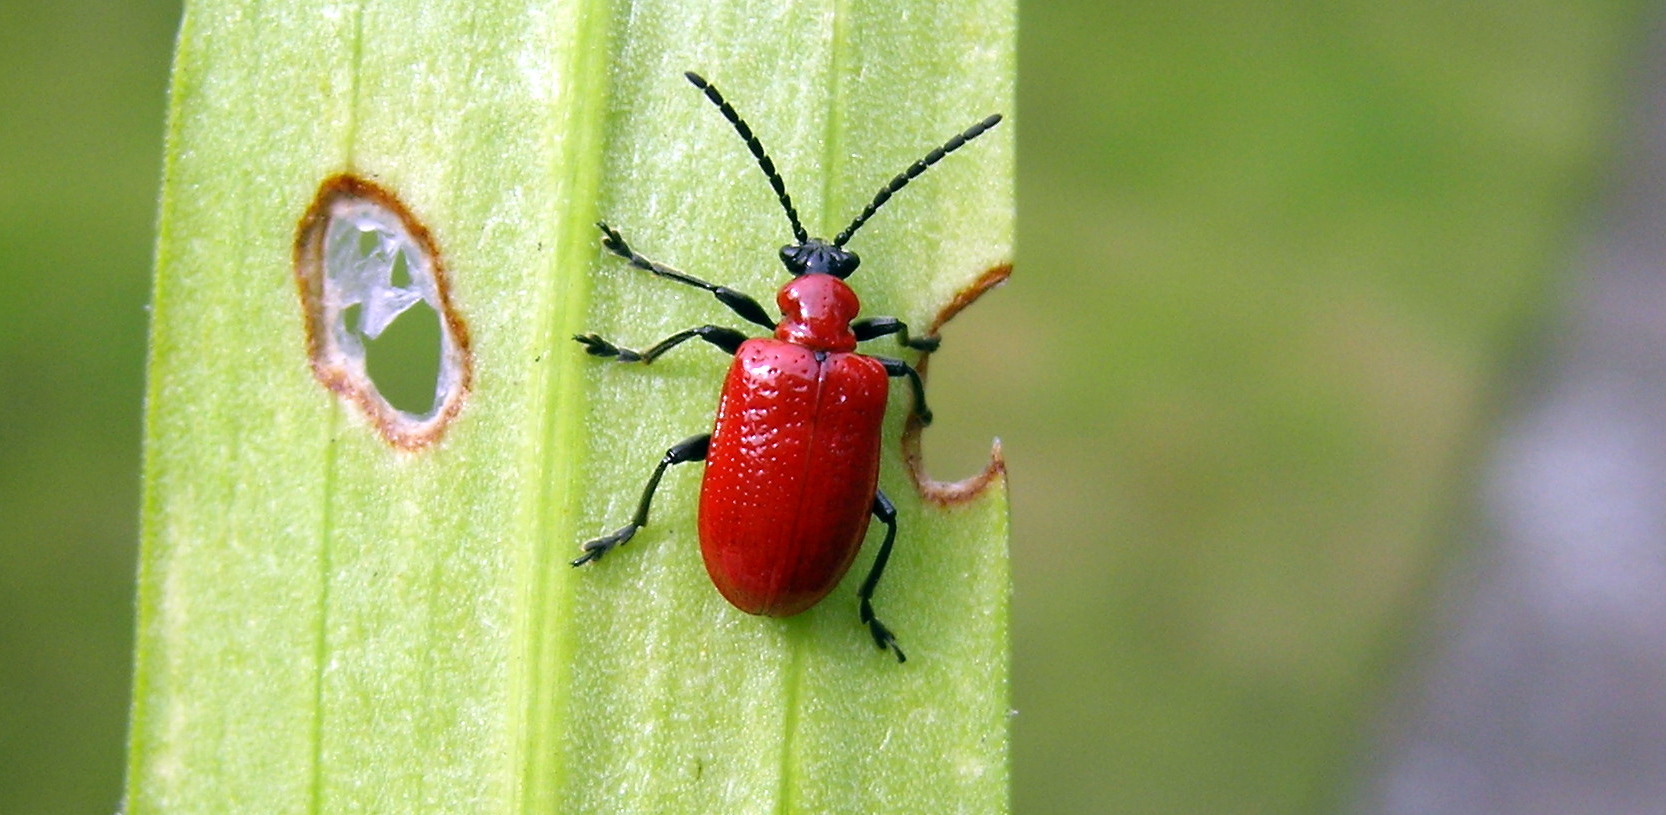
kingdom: Animalia
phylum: Arthropoda
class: Insecta
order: Coleoptera
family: Chrysomelidae
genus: Lilioceris
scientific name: Lilioceris lilii
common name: Lily beetle
